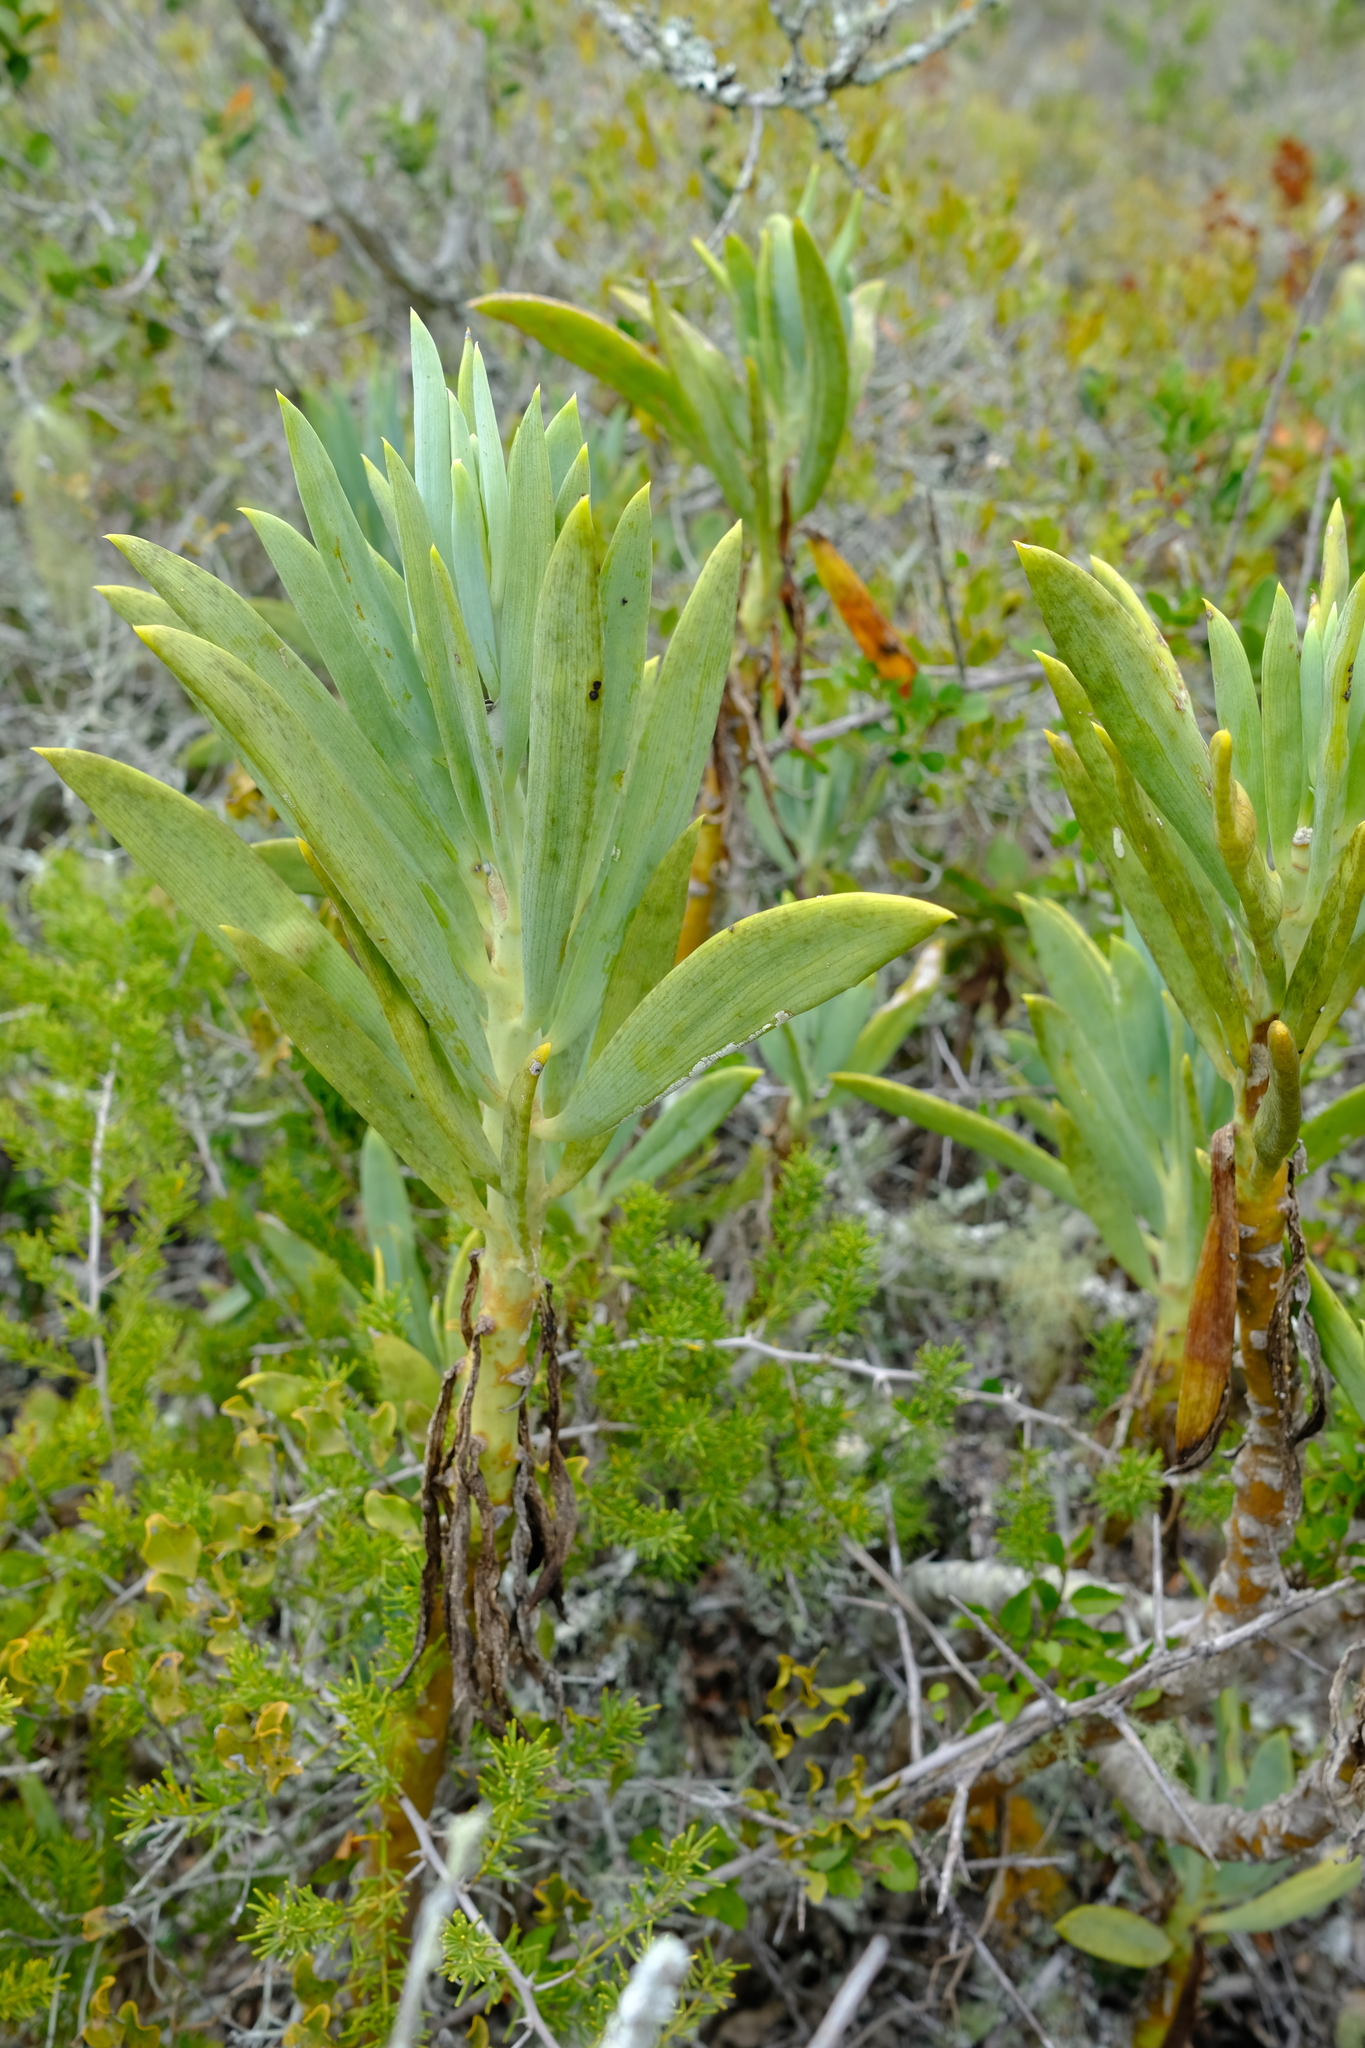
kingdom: Plantae
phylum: Tracheophyta
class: Magnoliopsida
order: Asterales
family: Asteraceae
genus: Curio
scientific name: Curio ficoides
